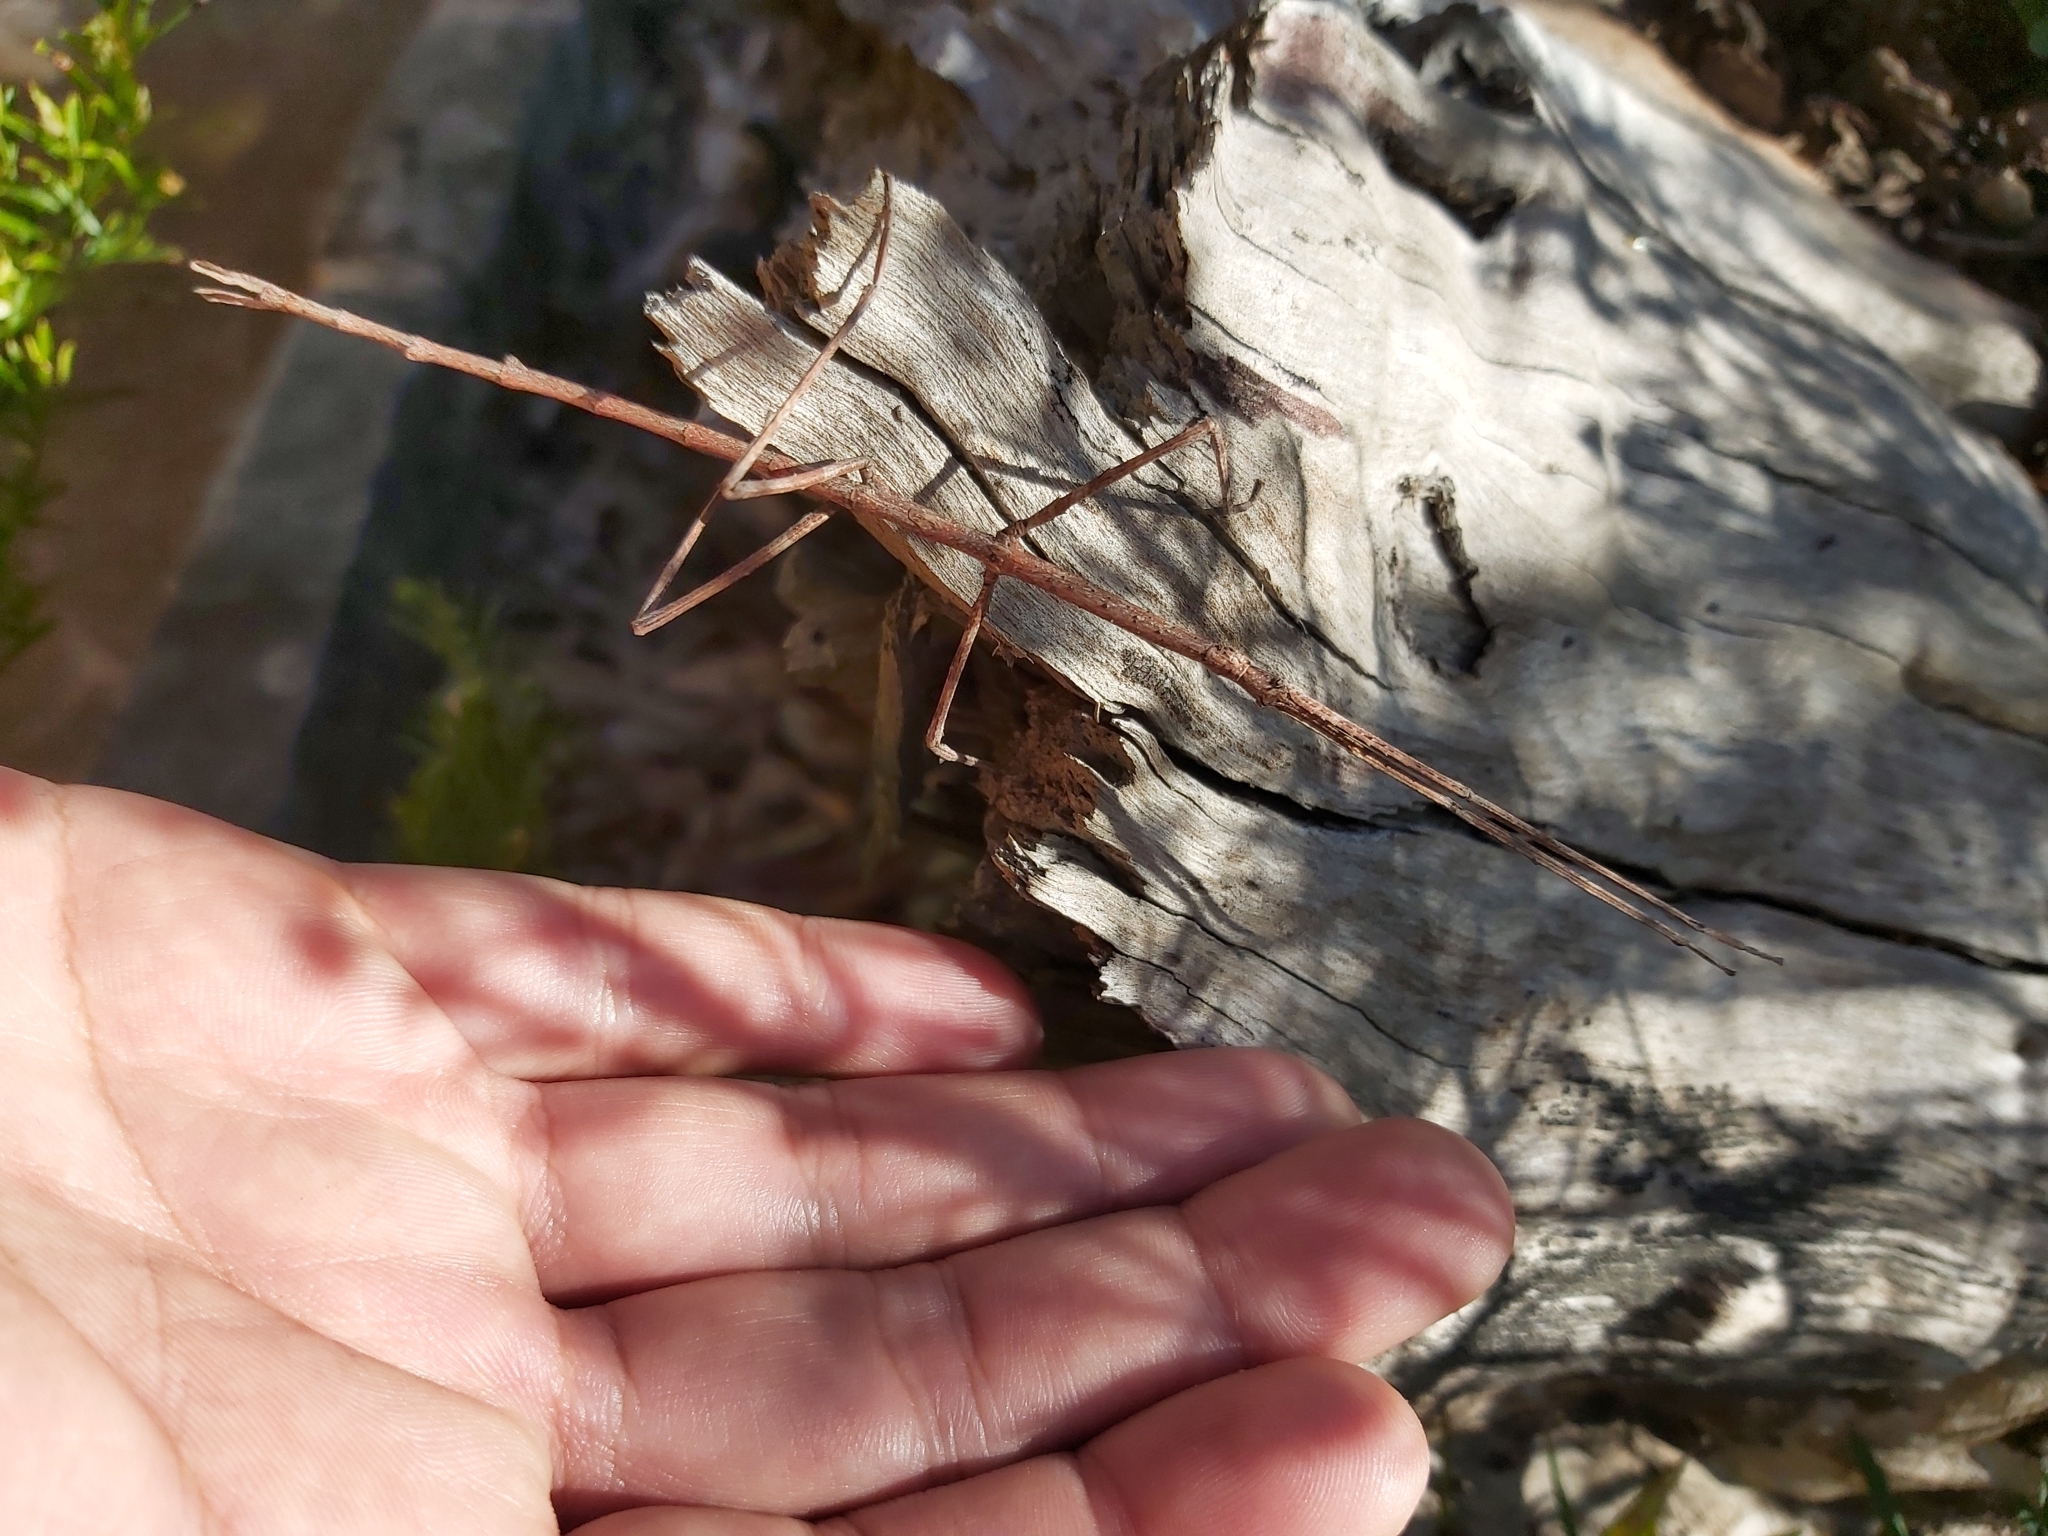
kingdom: Animalia
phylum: Arthropoda
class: Insecta
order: Phasmida
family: Phasmatidae
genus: Ctenomorpha
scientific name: Ctenomorpha marginipennis
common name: Margined-winged stick-insect
